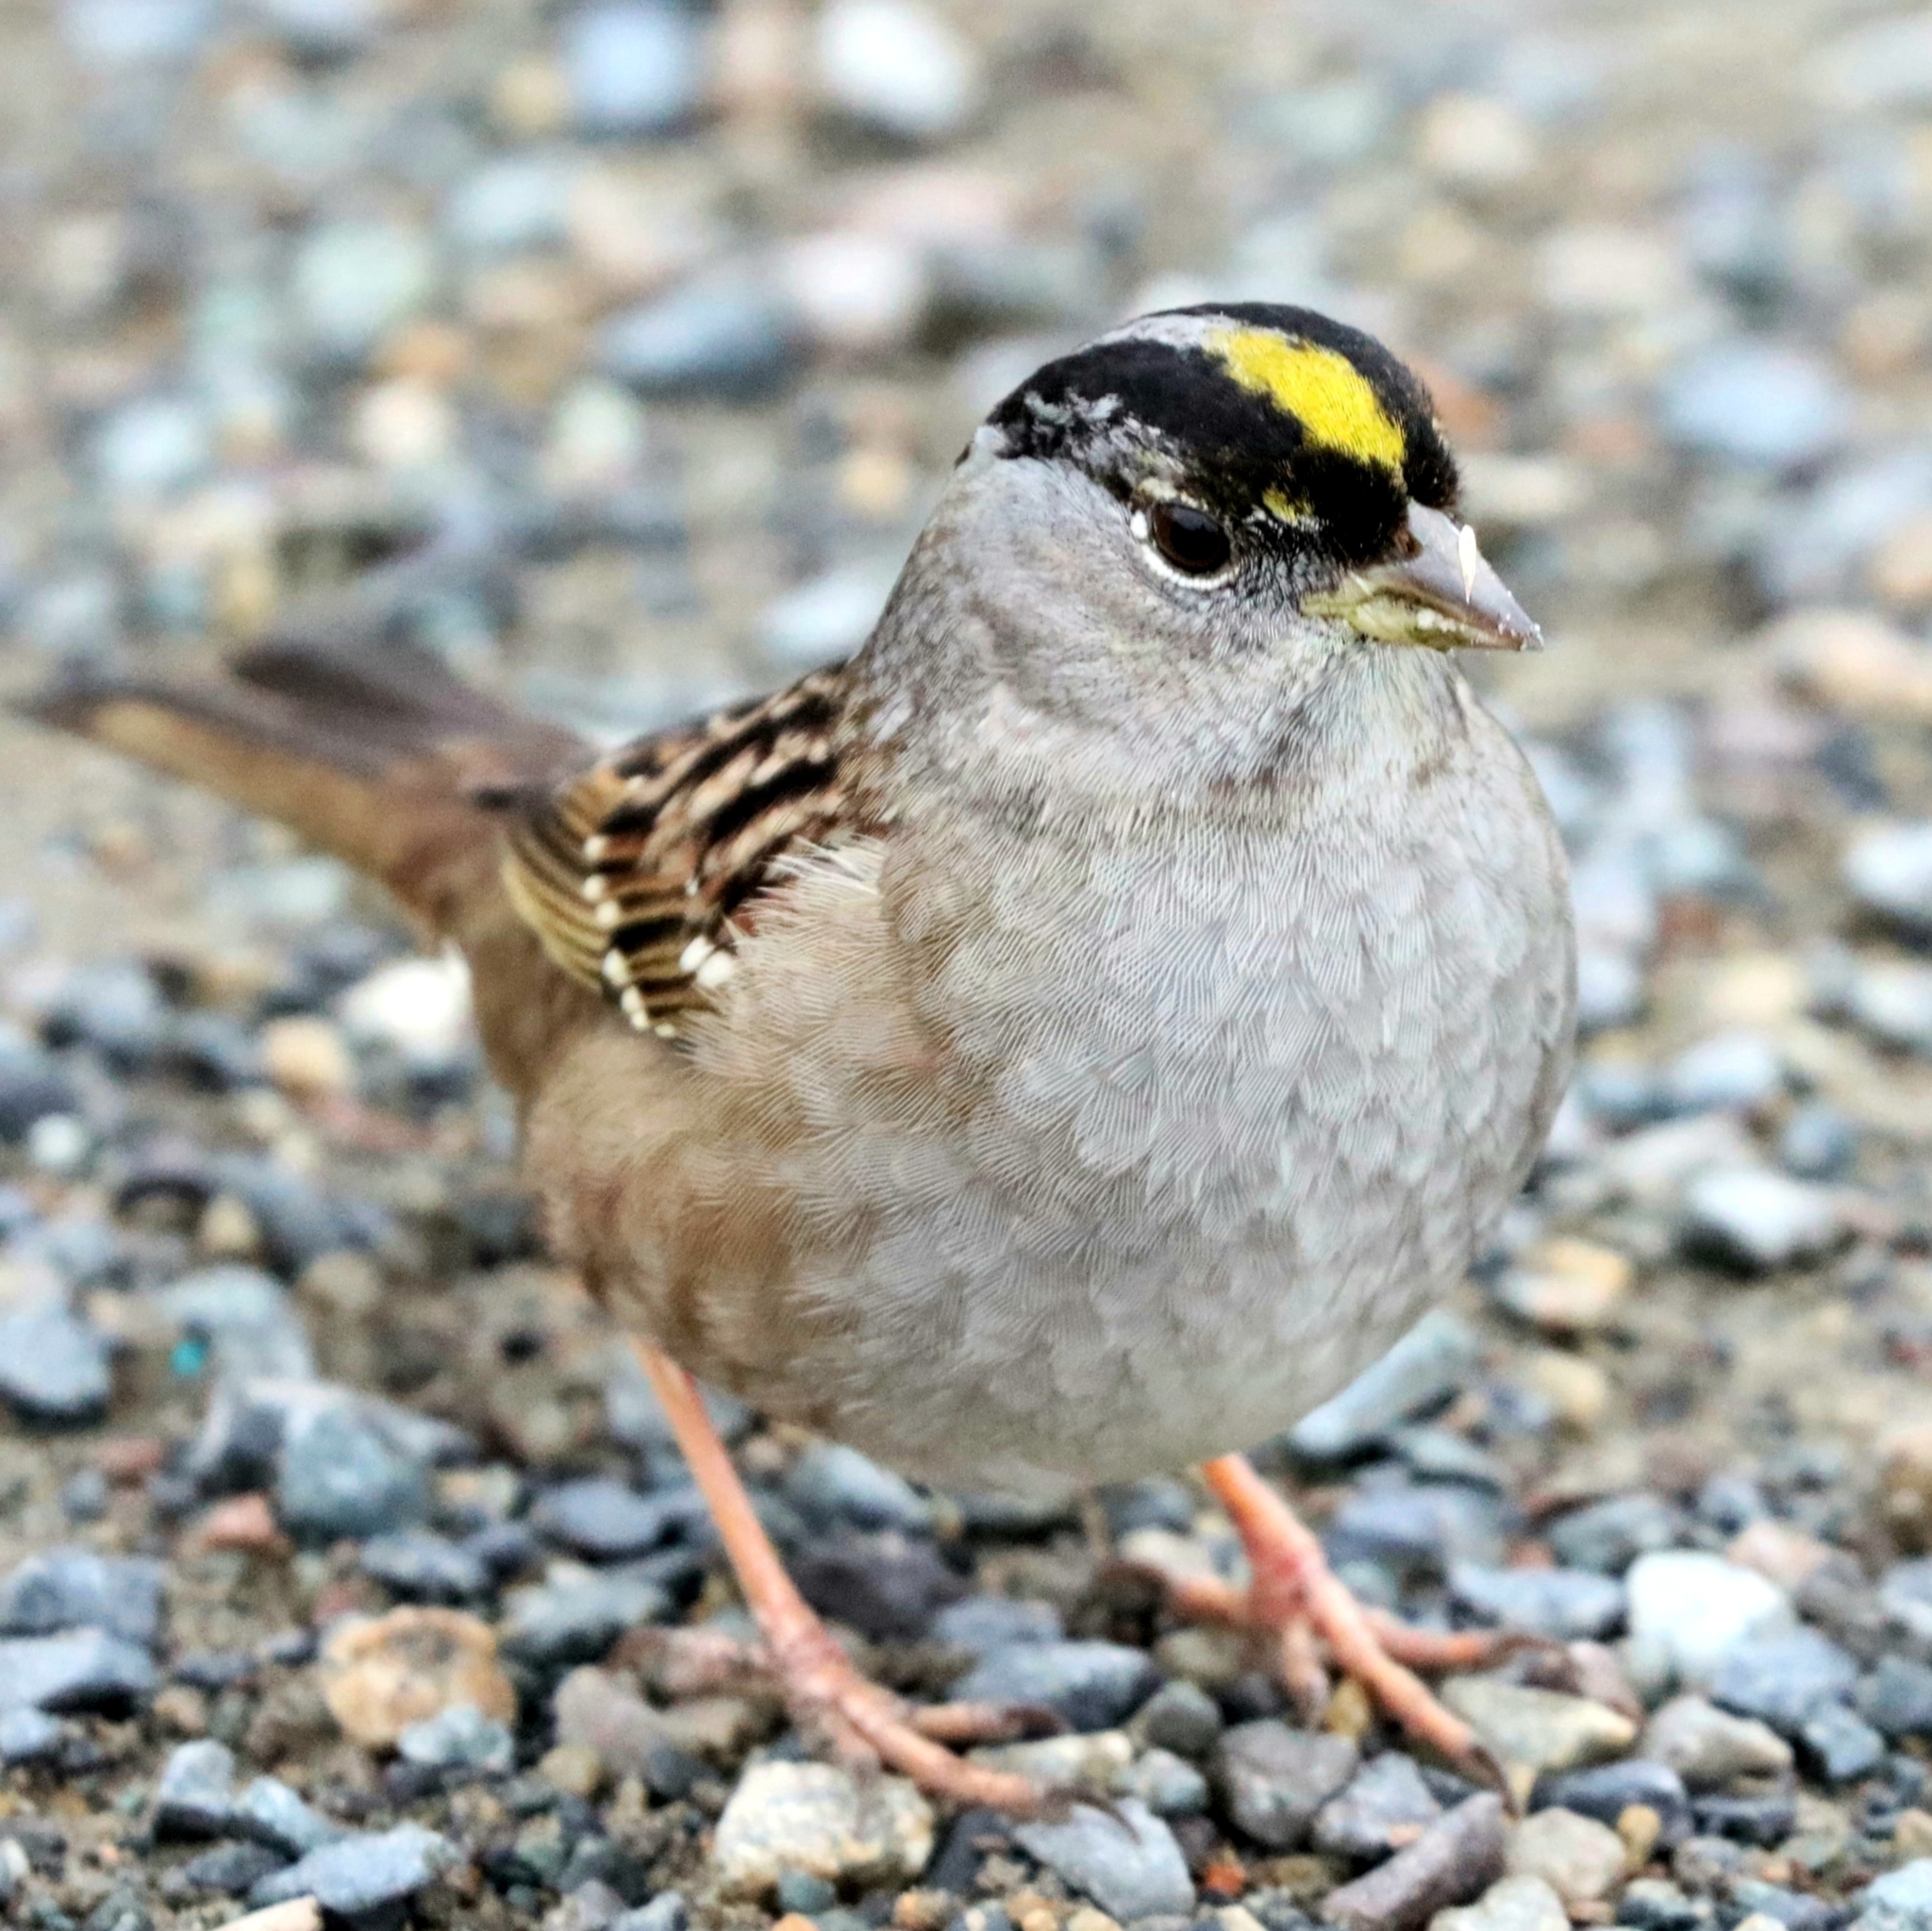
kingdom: Animalia
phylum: Chordata
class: Aves
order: Passeriformes
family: Passerellidae
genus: Zonotrichia
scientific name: Zonotrichia atricapilla
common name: Golden-crowned sparrow
